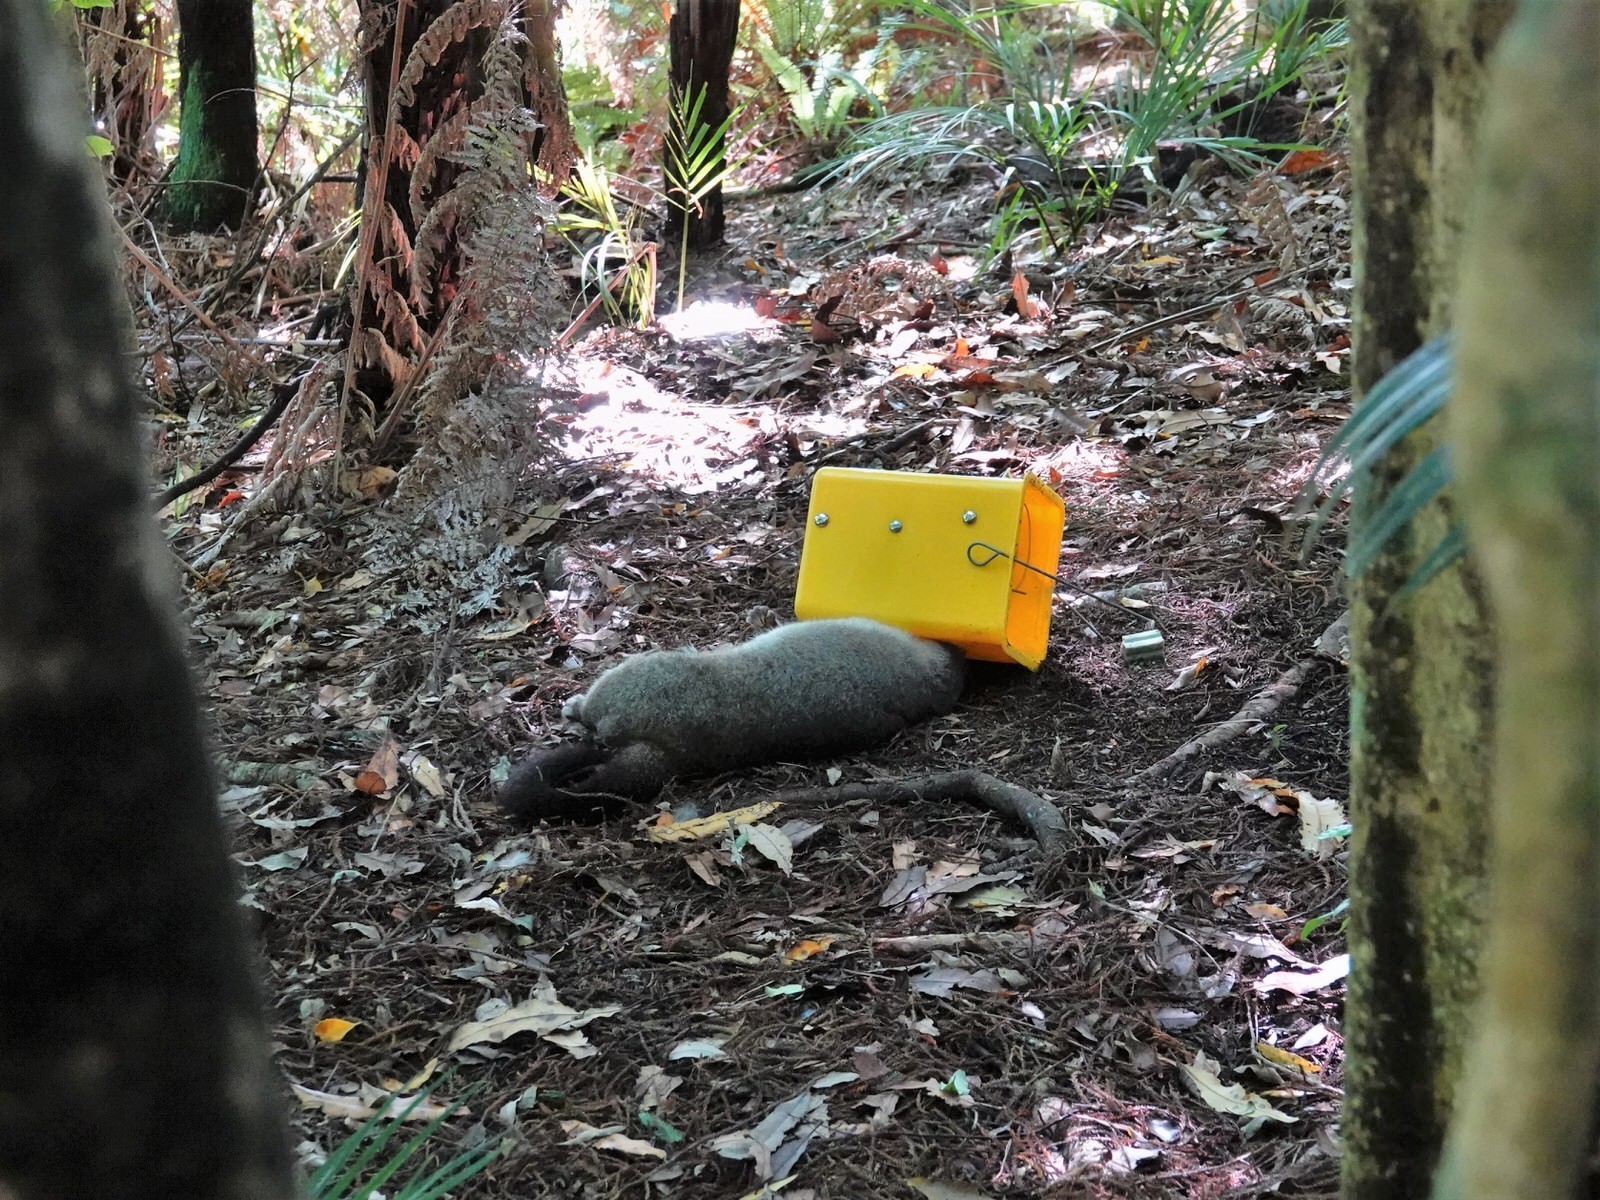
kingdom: Animalia
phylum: Chordata
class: Mammalia
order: Diprotodontia
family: Phalangeridae
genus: Trichosurus
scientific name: Trichosurus vulpecula
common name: Common brushtail
